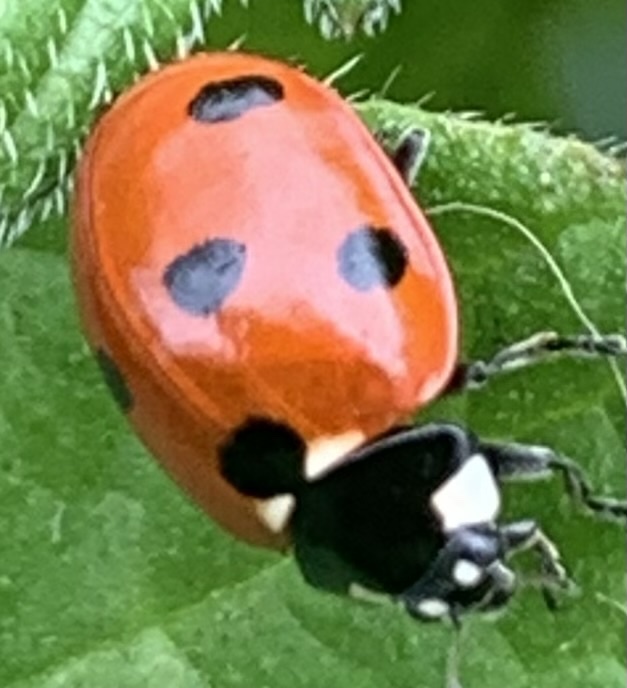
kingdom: Animalia
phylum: Arthropoda
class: Insecta
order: Coleoptera
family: Coccinellidae
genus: Coccinella
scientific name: Coccinella septempunctata
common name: Sevenspotted lady beetle
